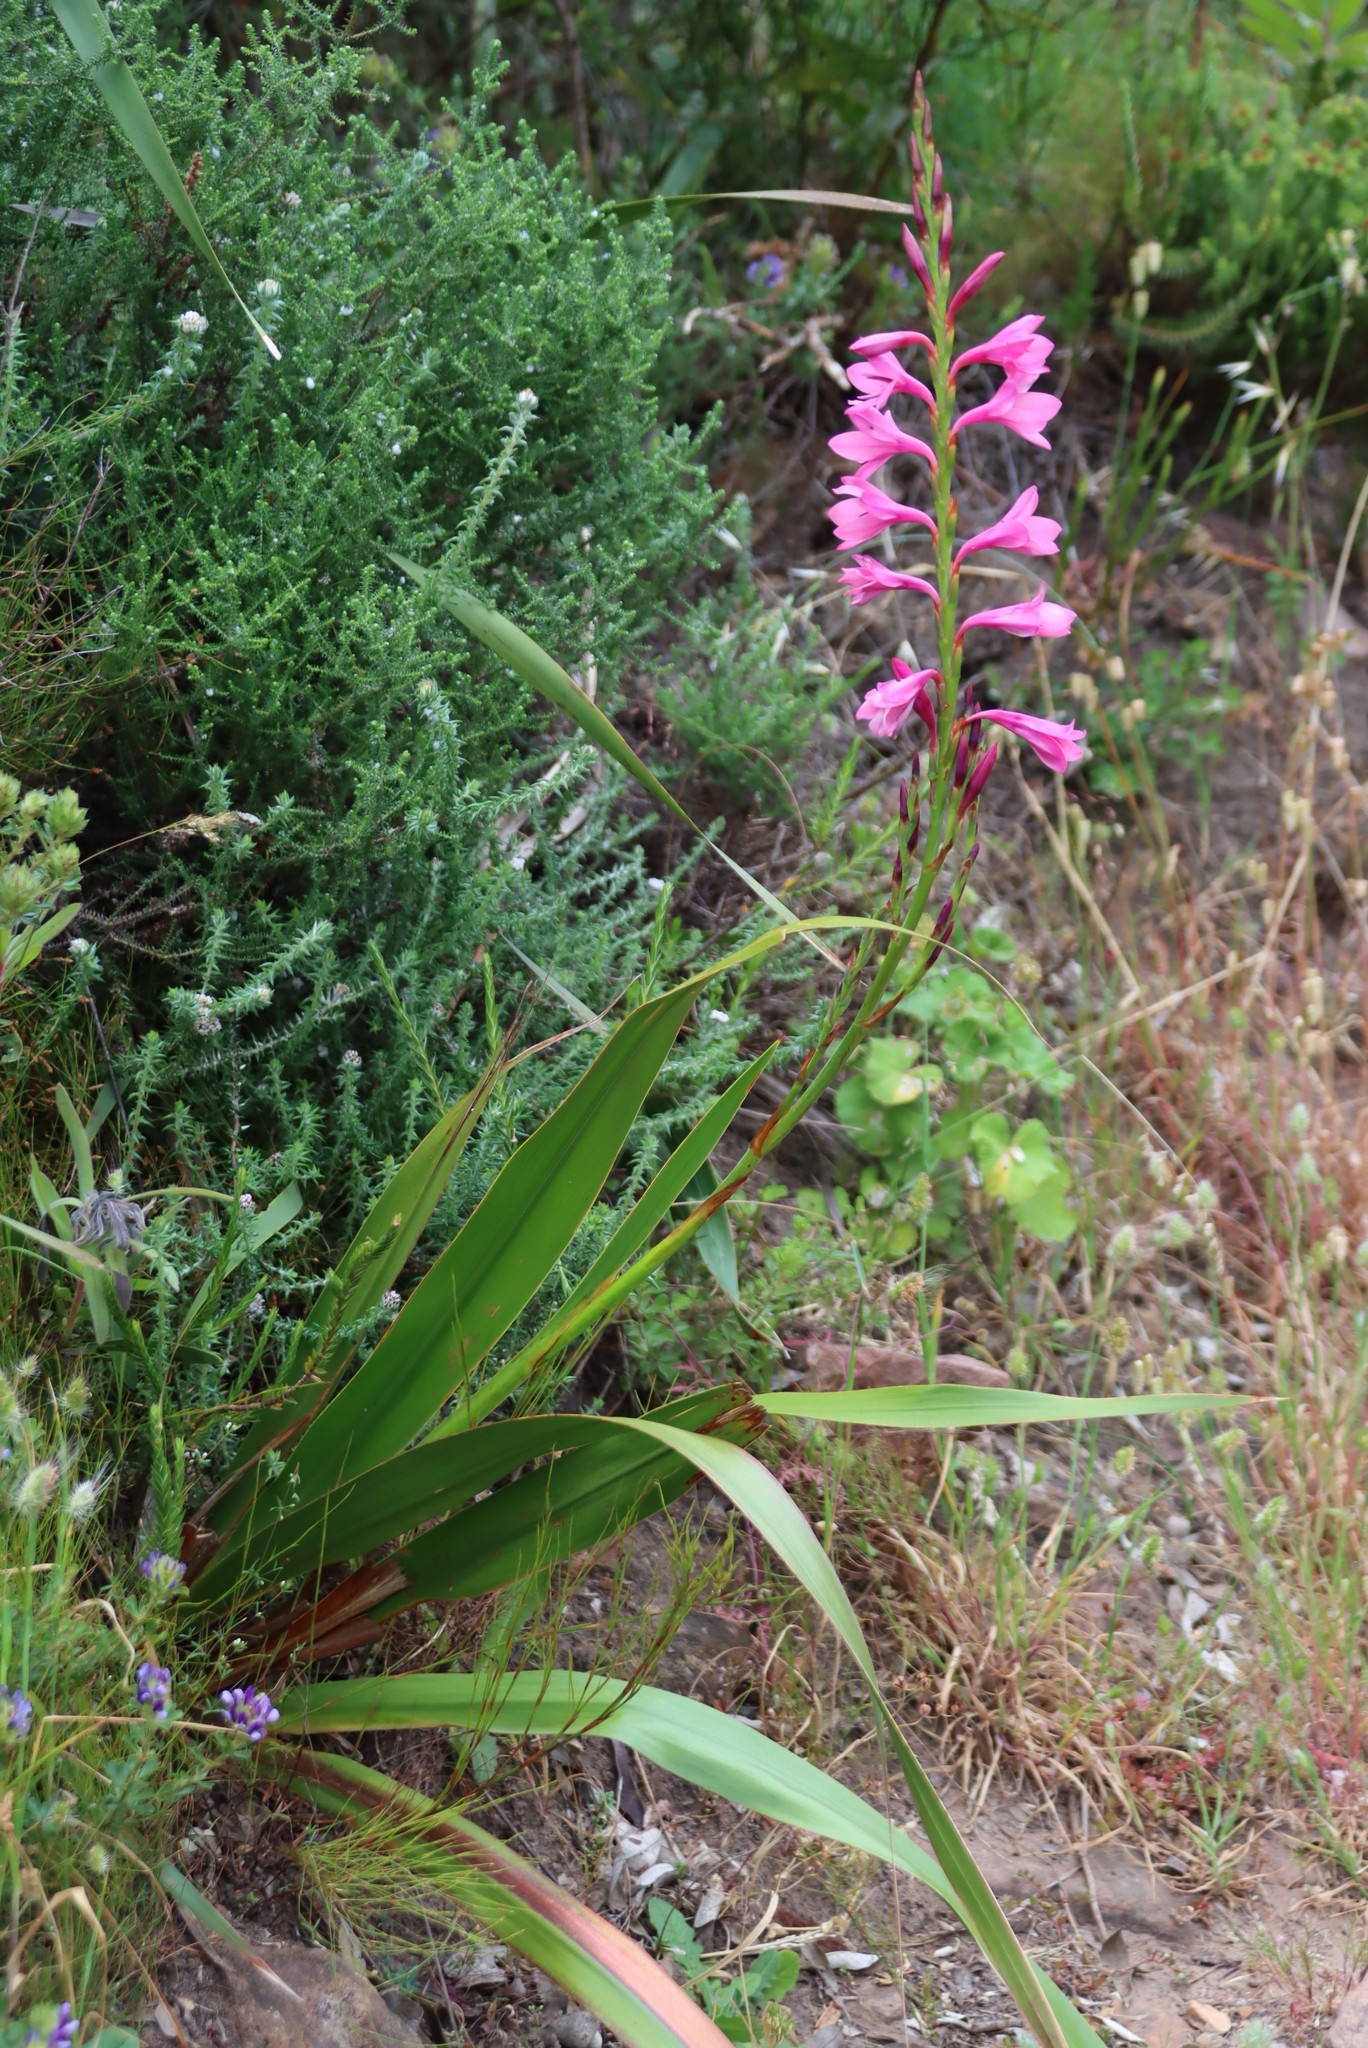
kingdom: Plantae
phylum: Tracheophyta
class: Liliopsida
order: Asparagales
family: Iridaceae
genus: Watsonia
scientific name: Watsonia borbonica
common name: Bugle-lily
